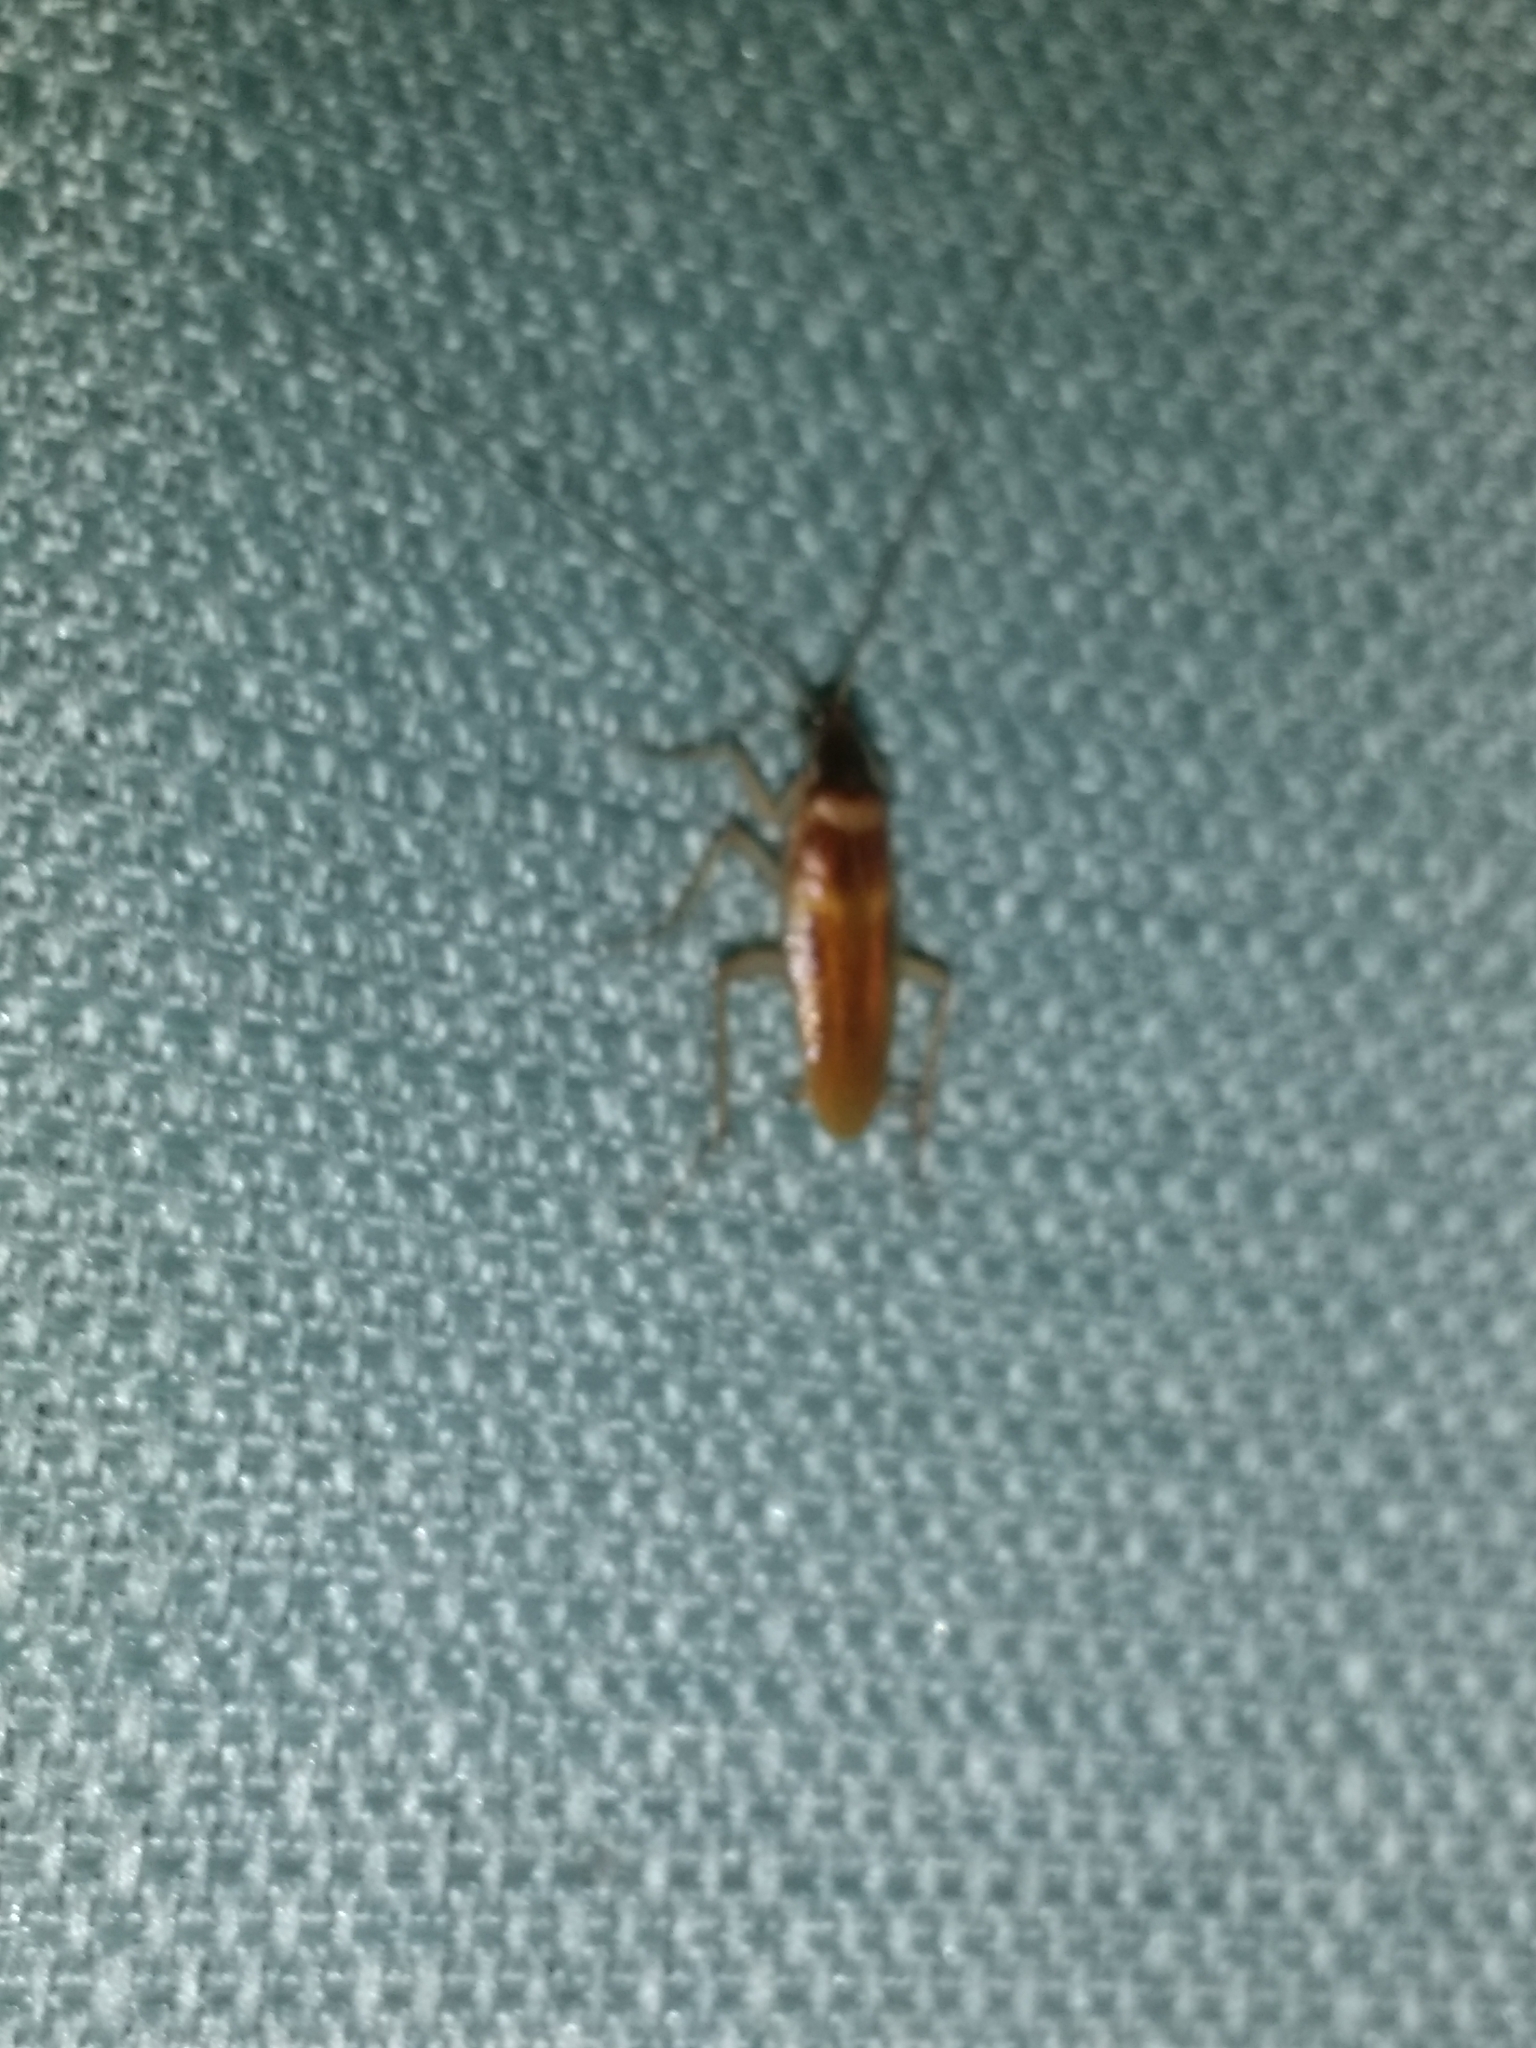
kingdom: Animalia
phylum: Arthropoda
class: Insecta
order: Blattodea
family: Ectobiidae
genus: Supella
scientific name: Supella longipalpa
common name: Brown-banded cockroach
